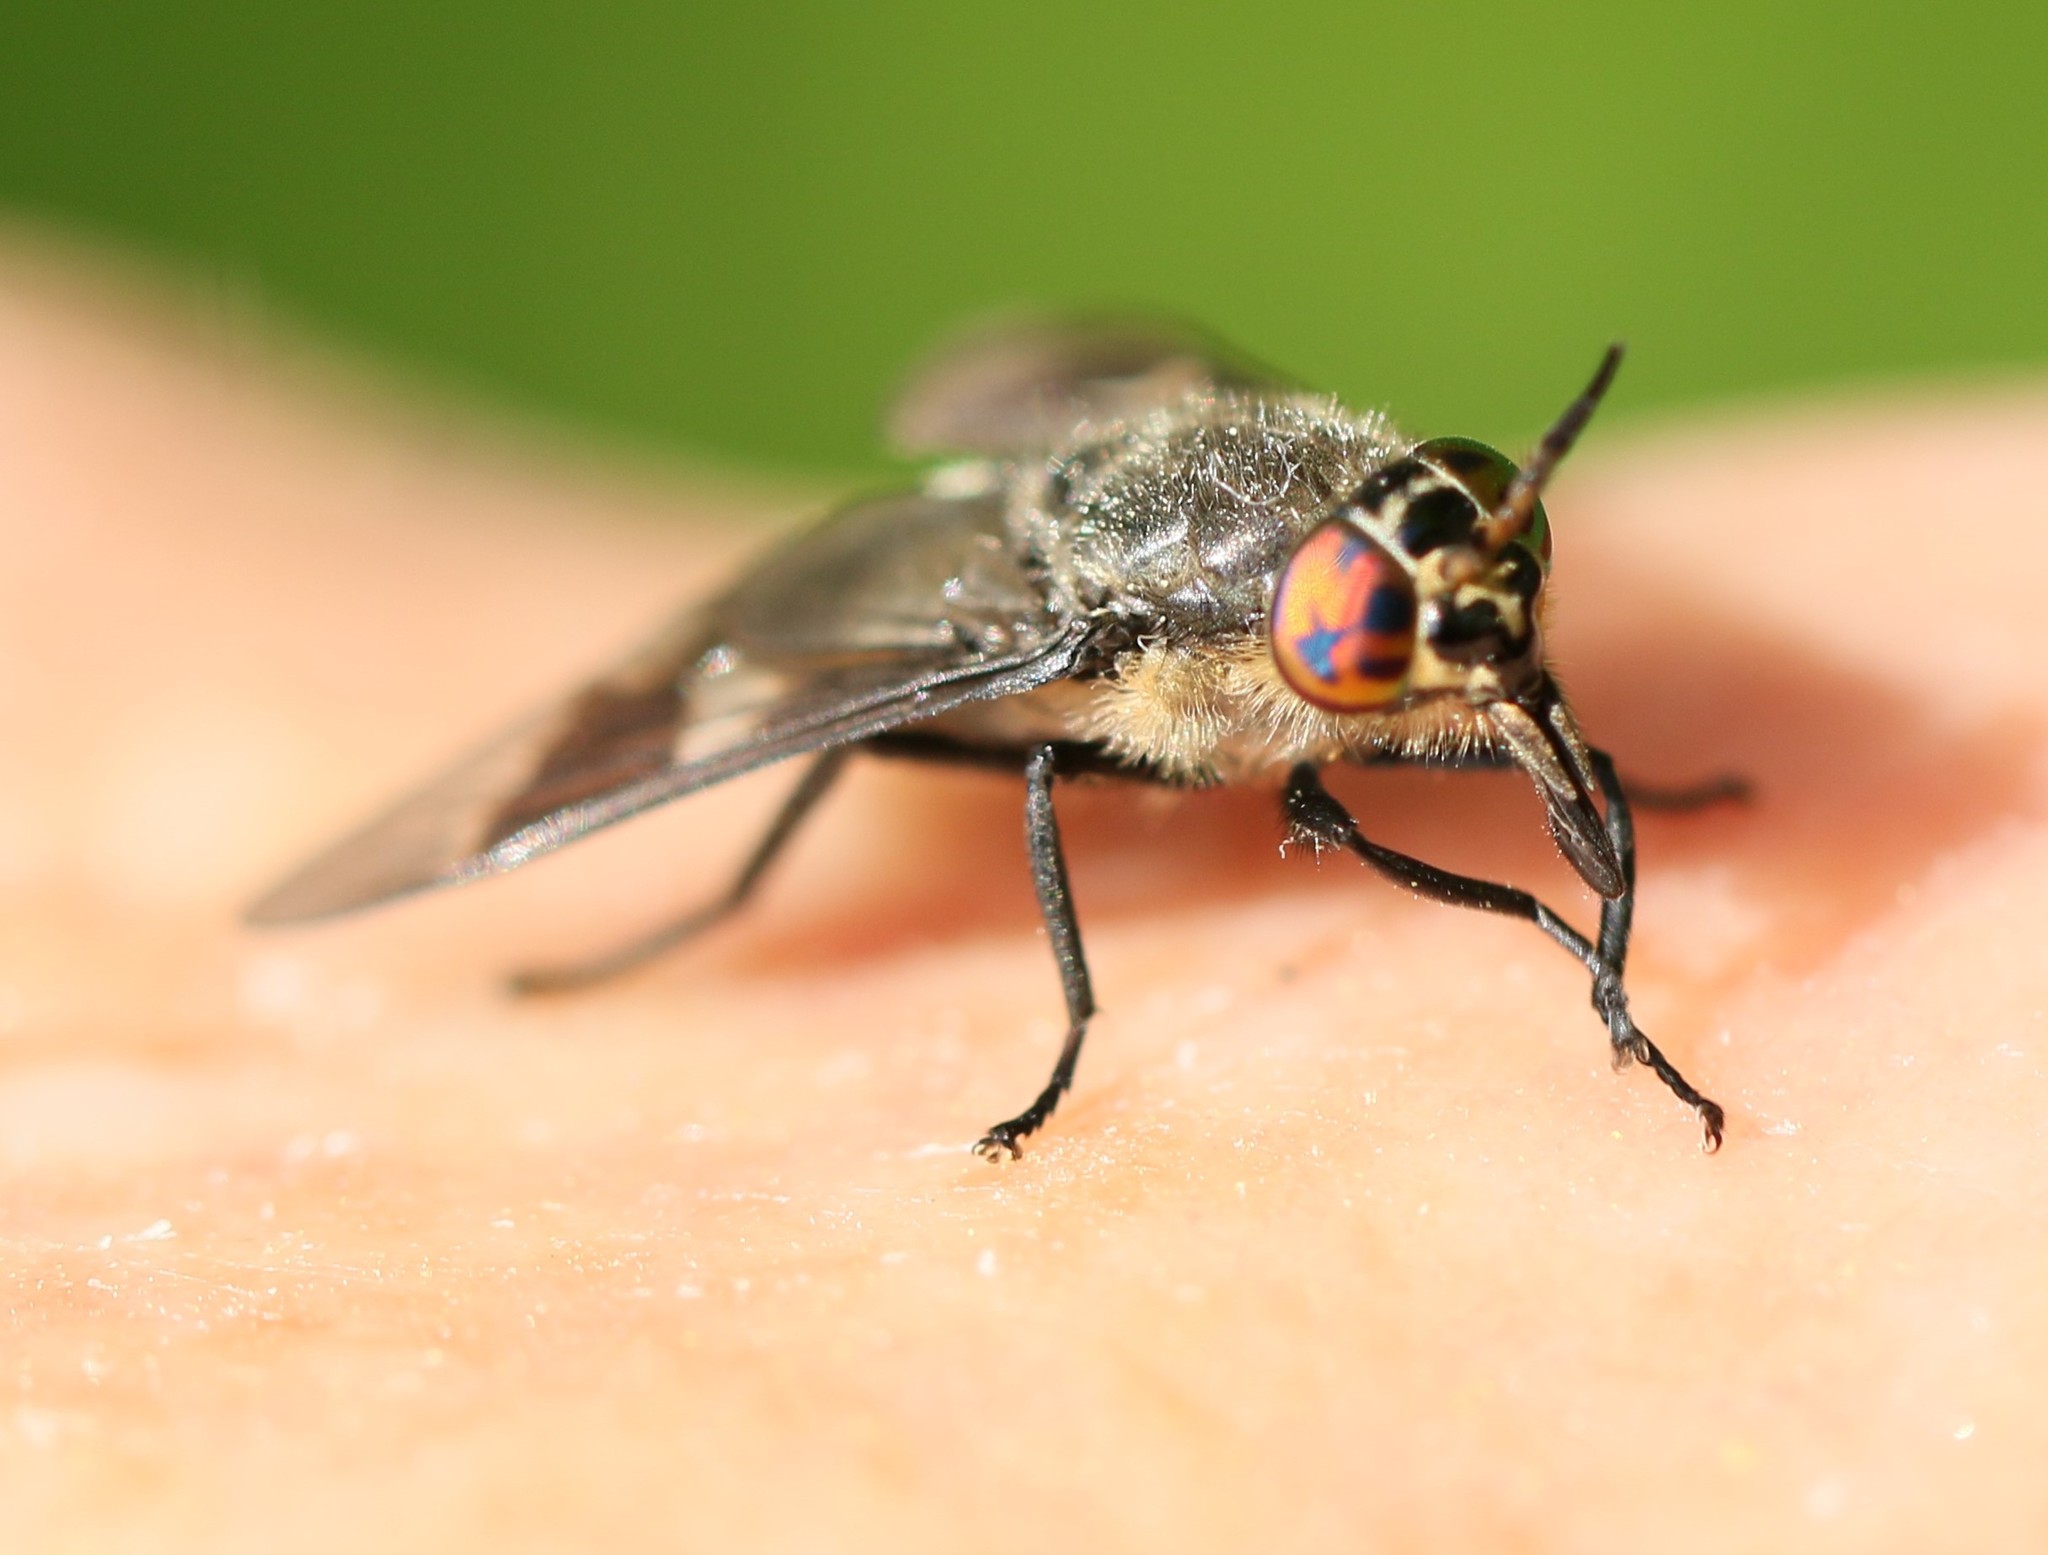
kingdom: Animalia
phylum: Arthropoda
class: Insecta
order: Diptera
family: Tabanidae
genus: Chrysops
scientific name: Chrysops ater
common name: Dark deer fly
